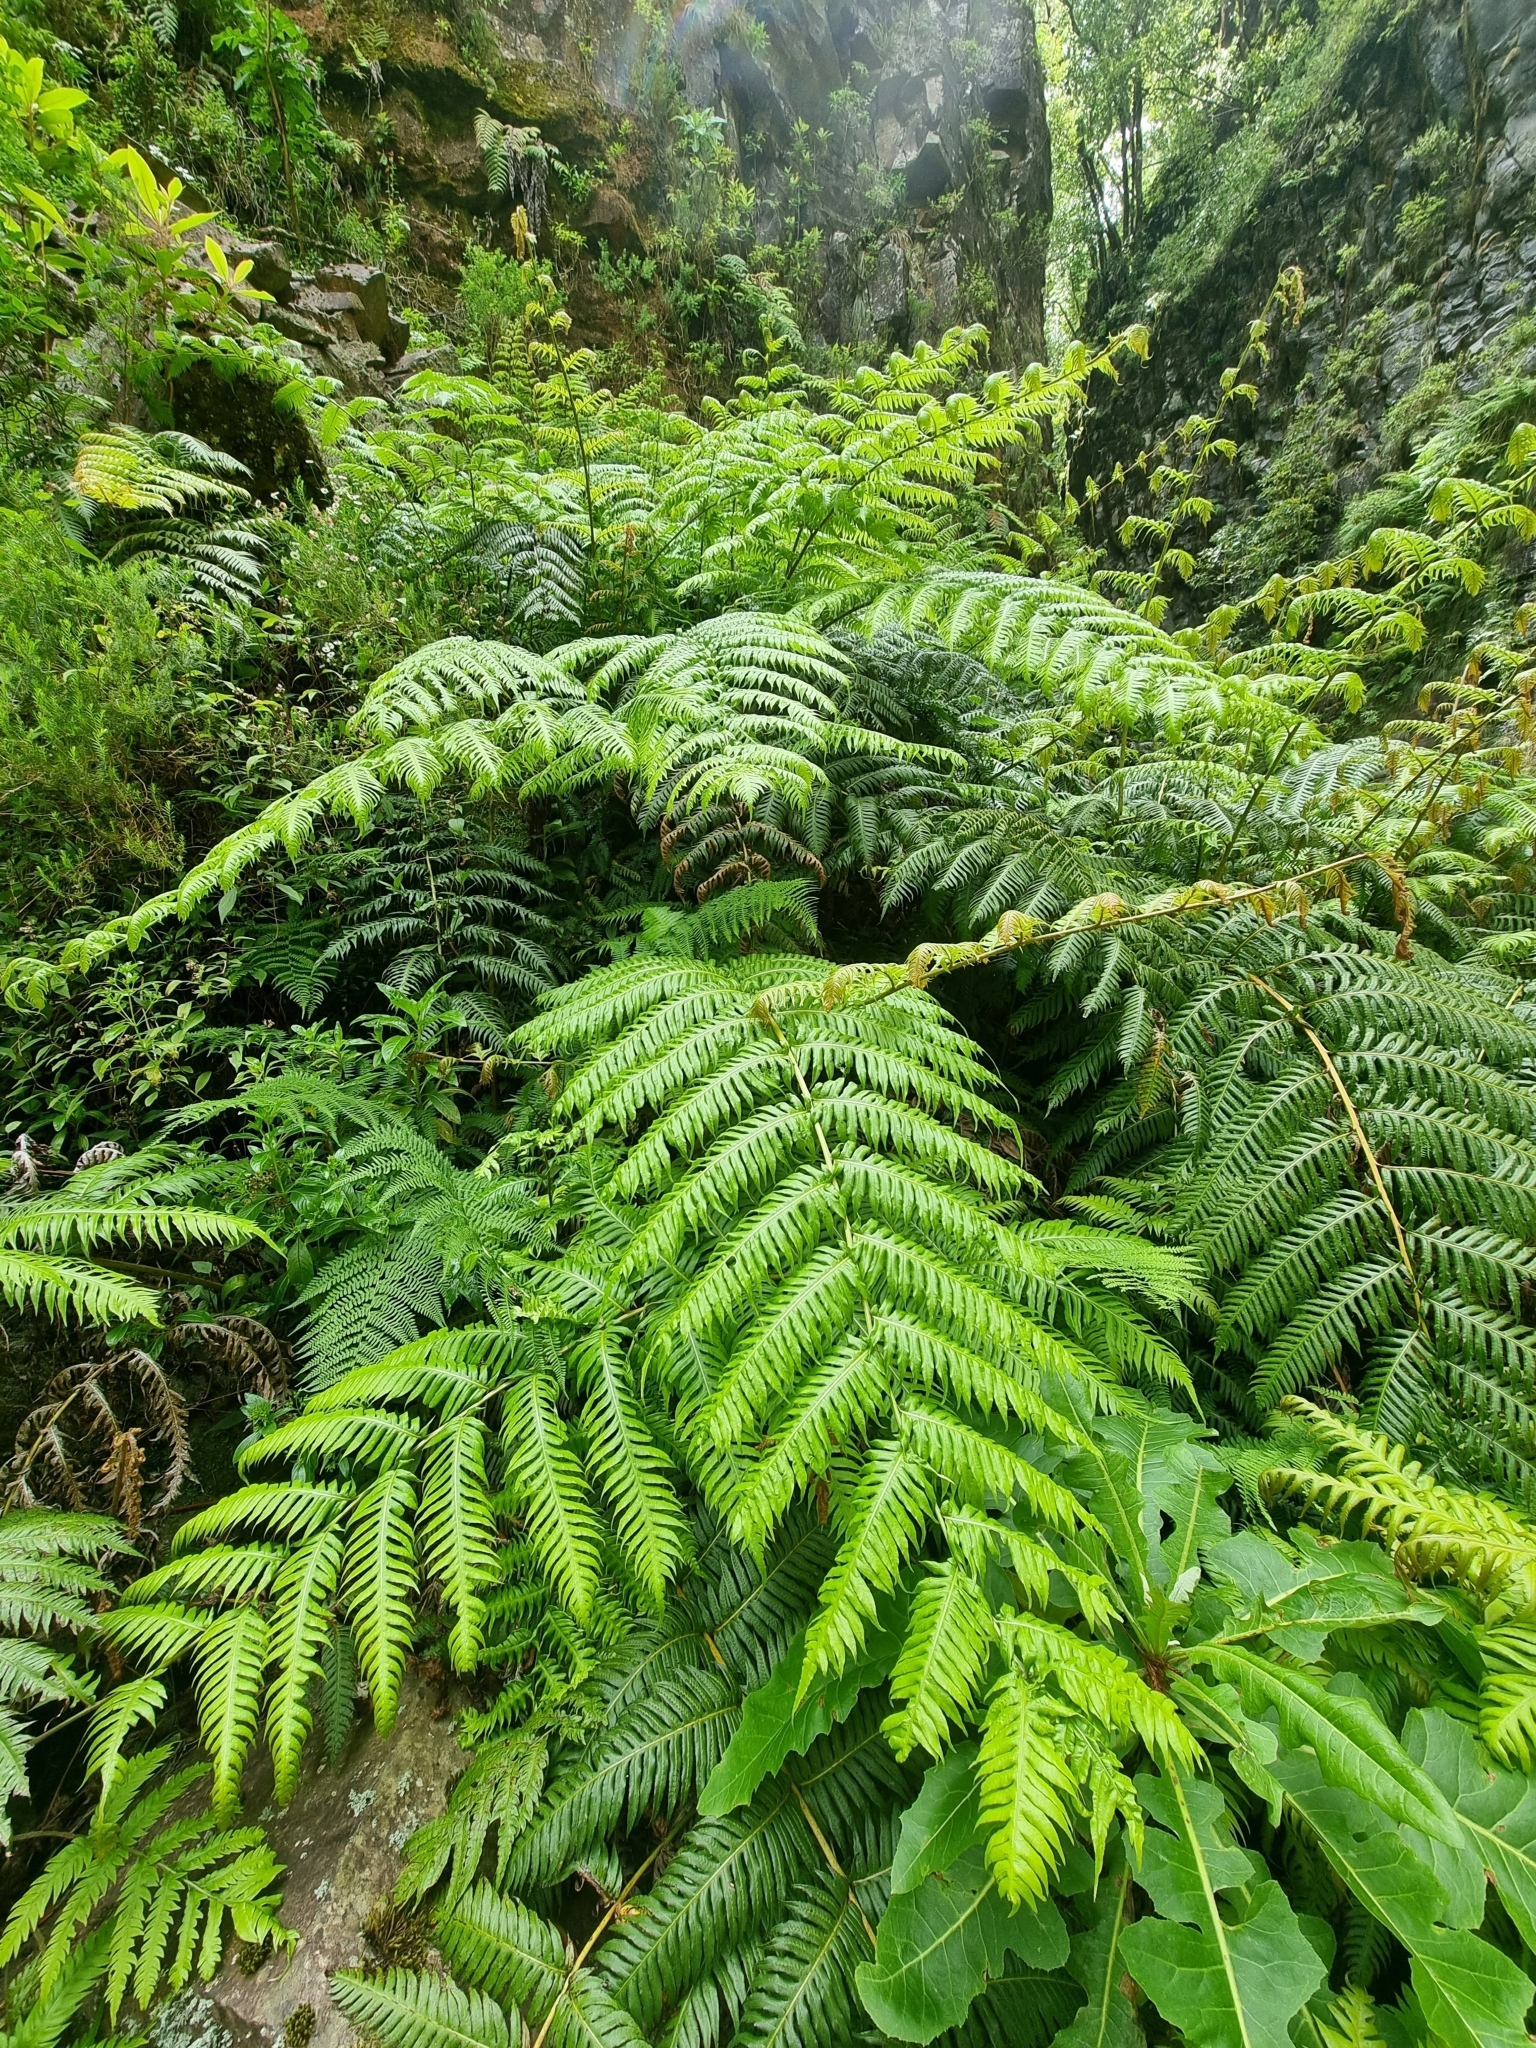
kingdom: Plantae
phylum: Tracheophyta
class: Polypodiopsida
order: Polypodiales
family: Blechnaceae
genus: Woodwardia
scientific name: Woodwardia radicans
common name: Rooting chainfern
